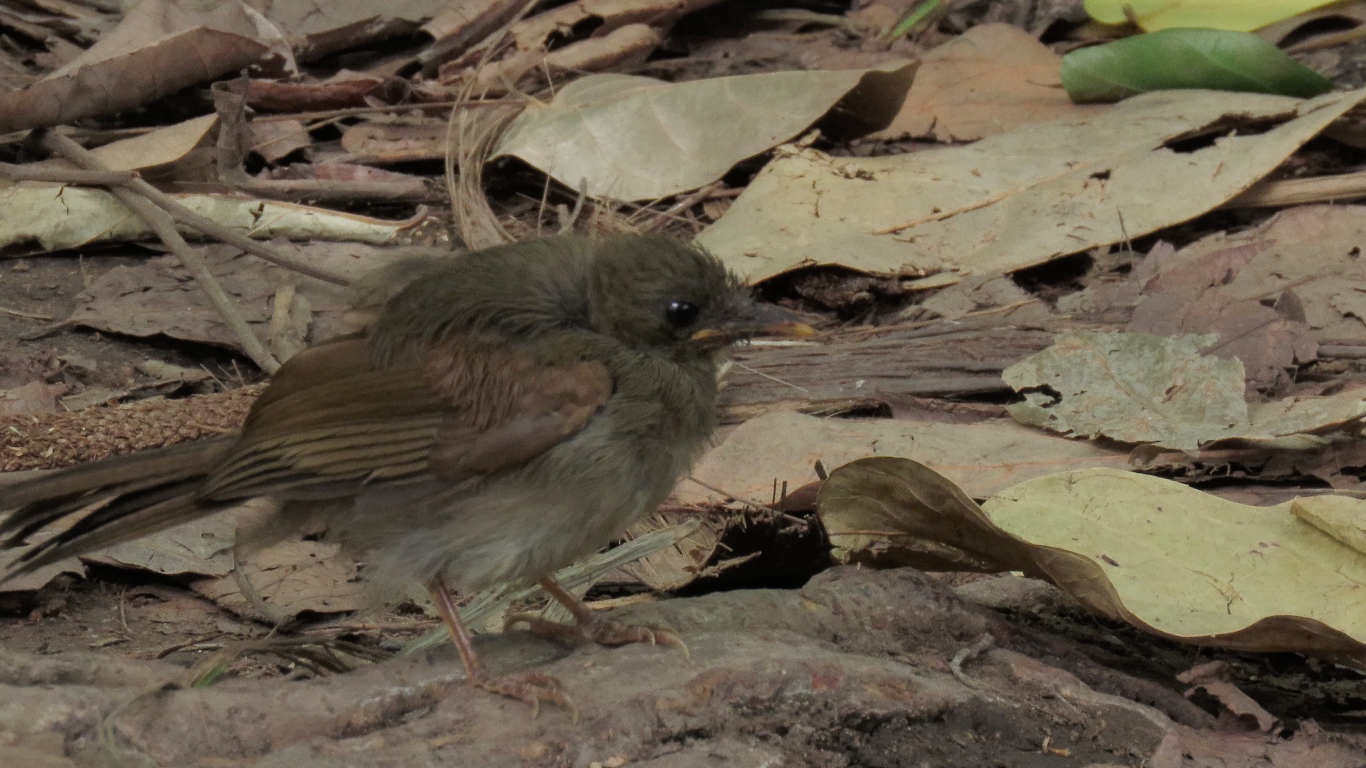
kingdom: Animalia
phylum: Chordata
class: Aves
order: Passeriformes
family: Pycnonotidae
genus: Eurillas
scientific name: Eurillas virens
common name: Little greenbul
